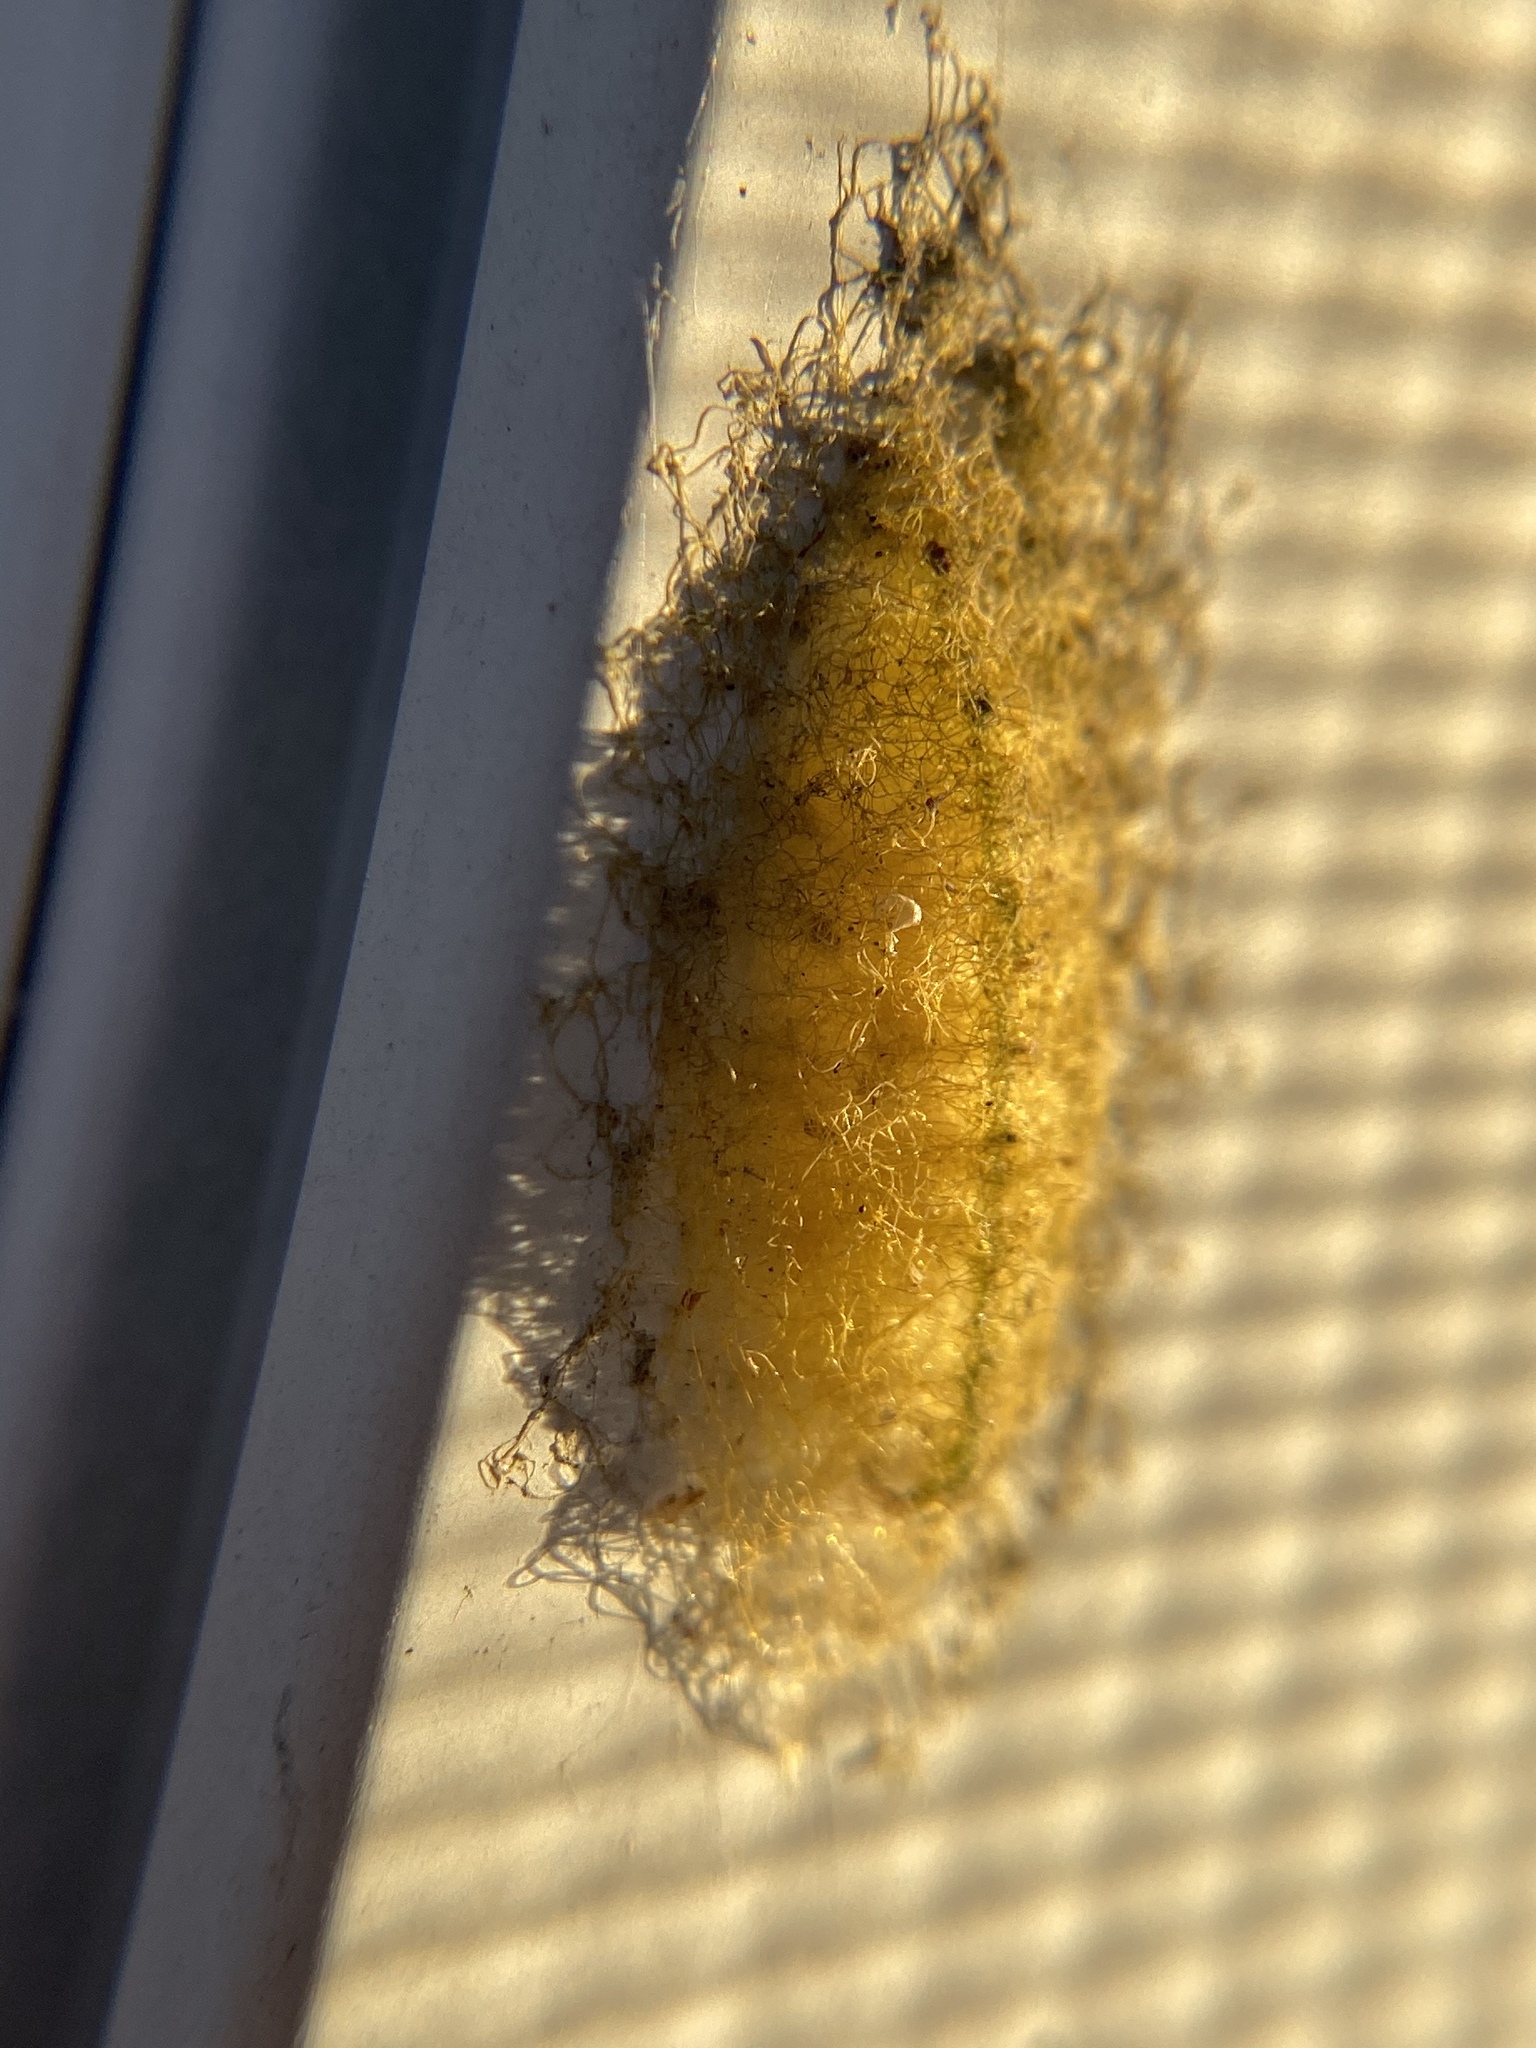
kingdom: Animalia
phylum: Arthropoda
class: Arachnida
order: Araneae
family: Araneidae
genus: Gasteracantha
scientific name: Gasteracantha cancriformis
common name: Orb weavers
